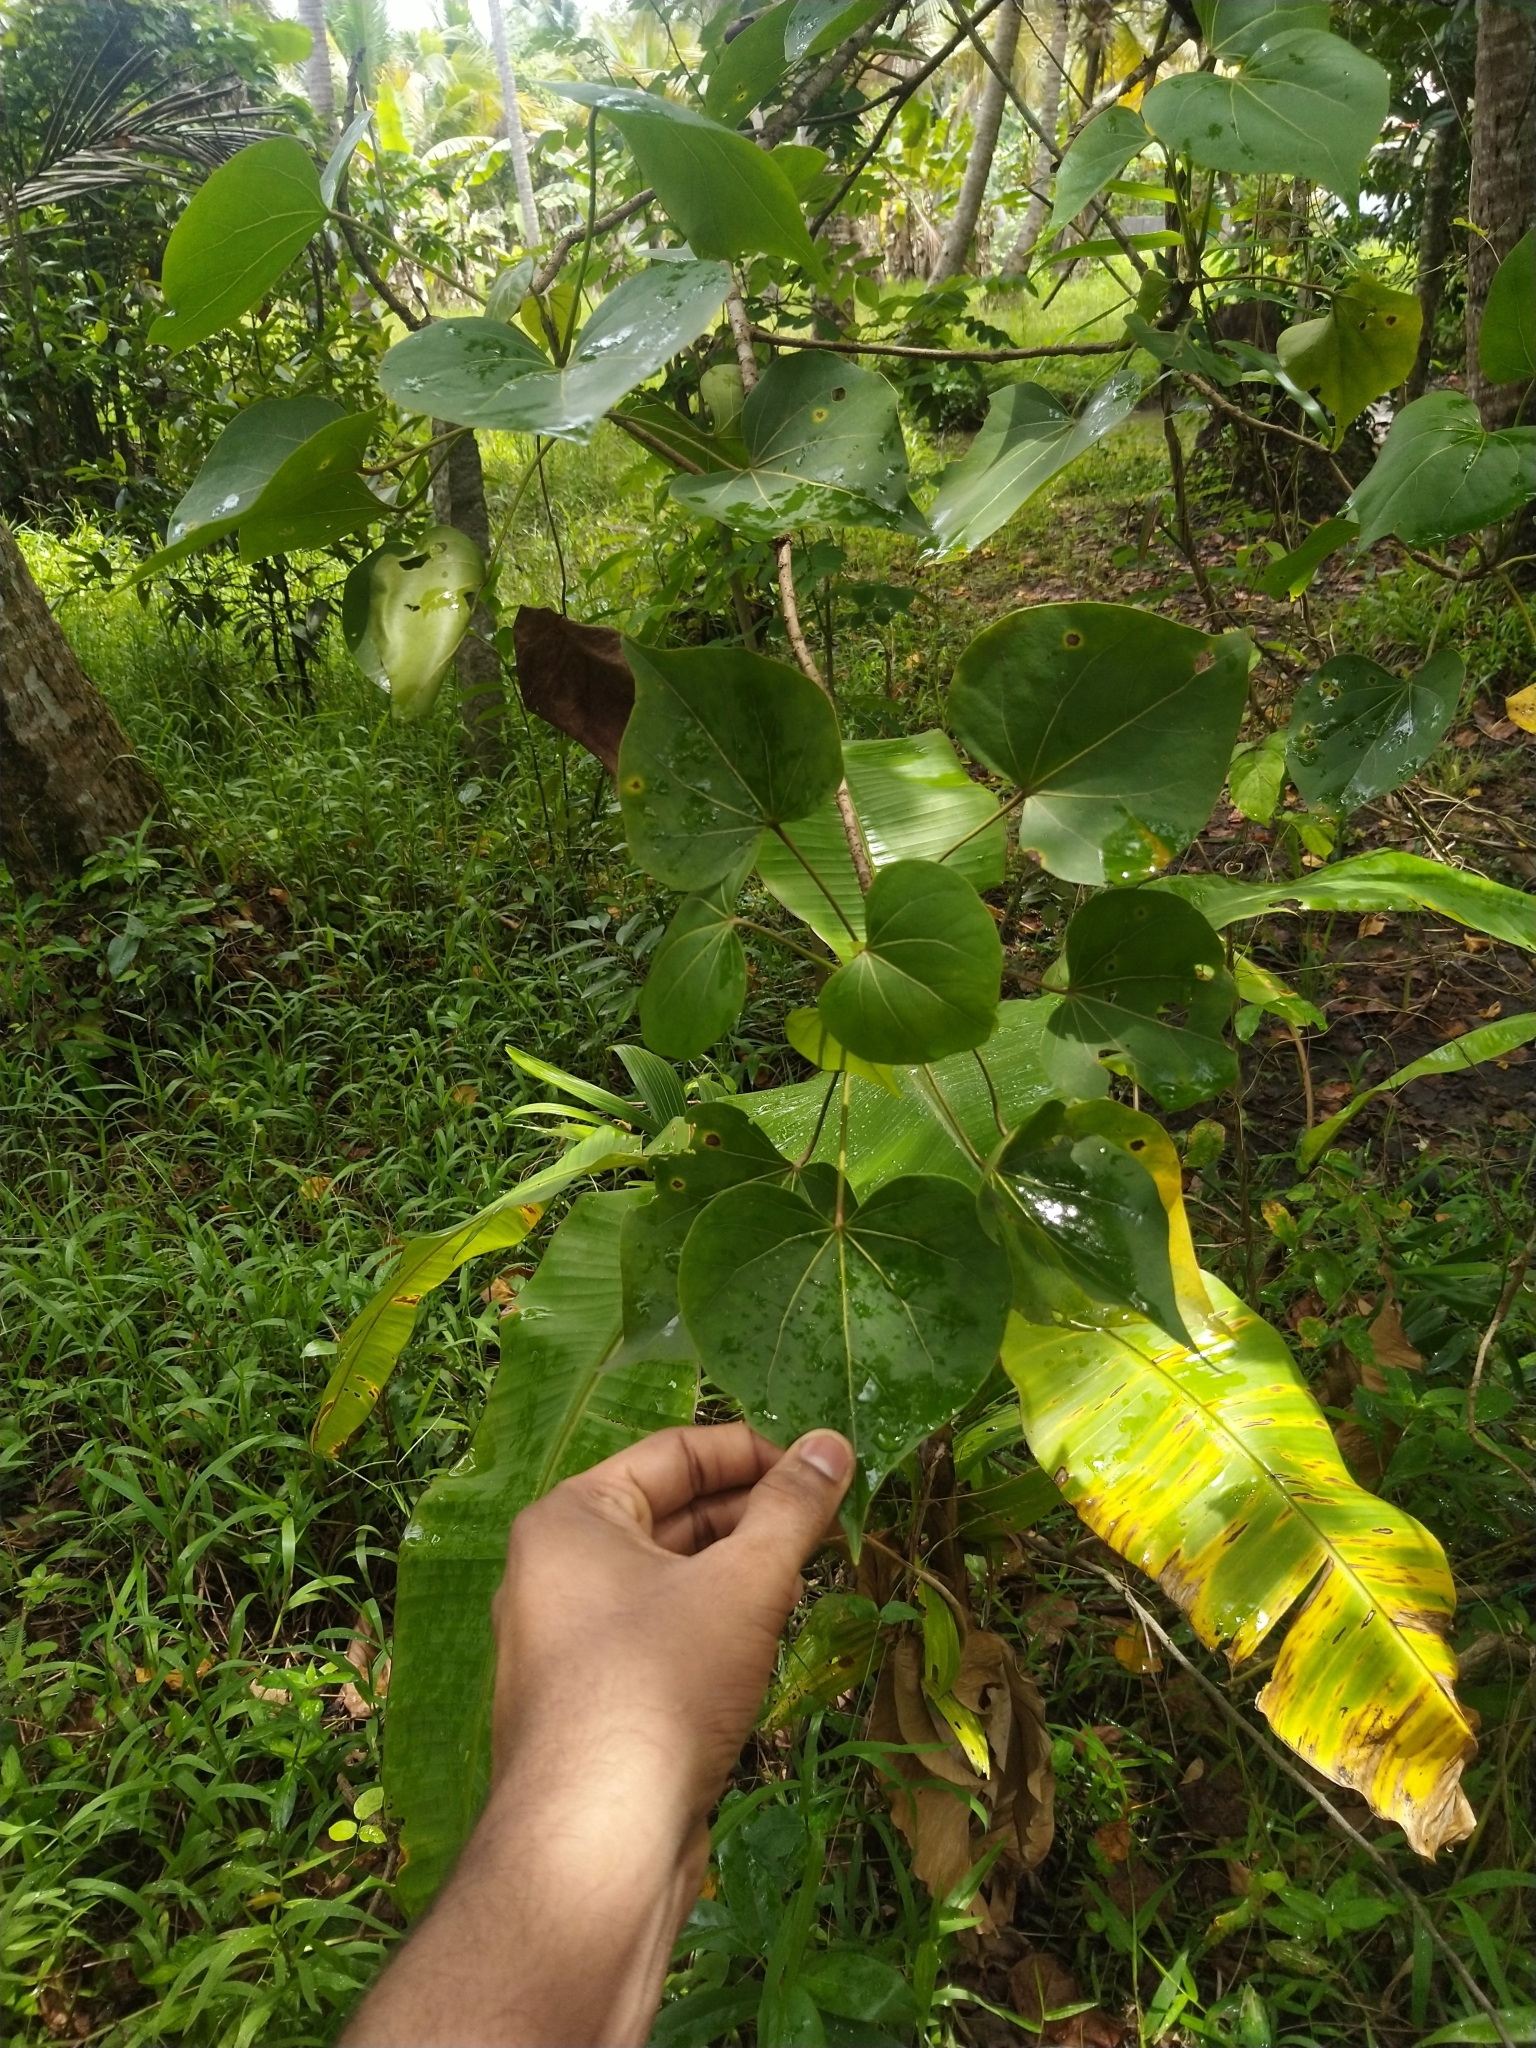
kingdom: Plantae
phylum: Tracheophyta
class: Magnoliopsida
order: Malvales
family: Malvaceae
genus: Thespesia
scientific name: Thespesia populnea
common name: Seaside mahoe
